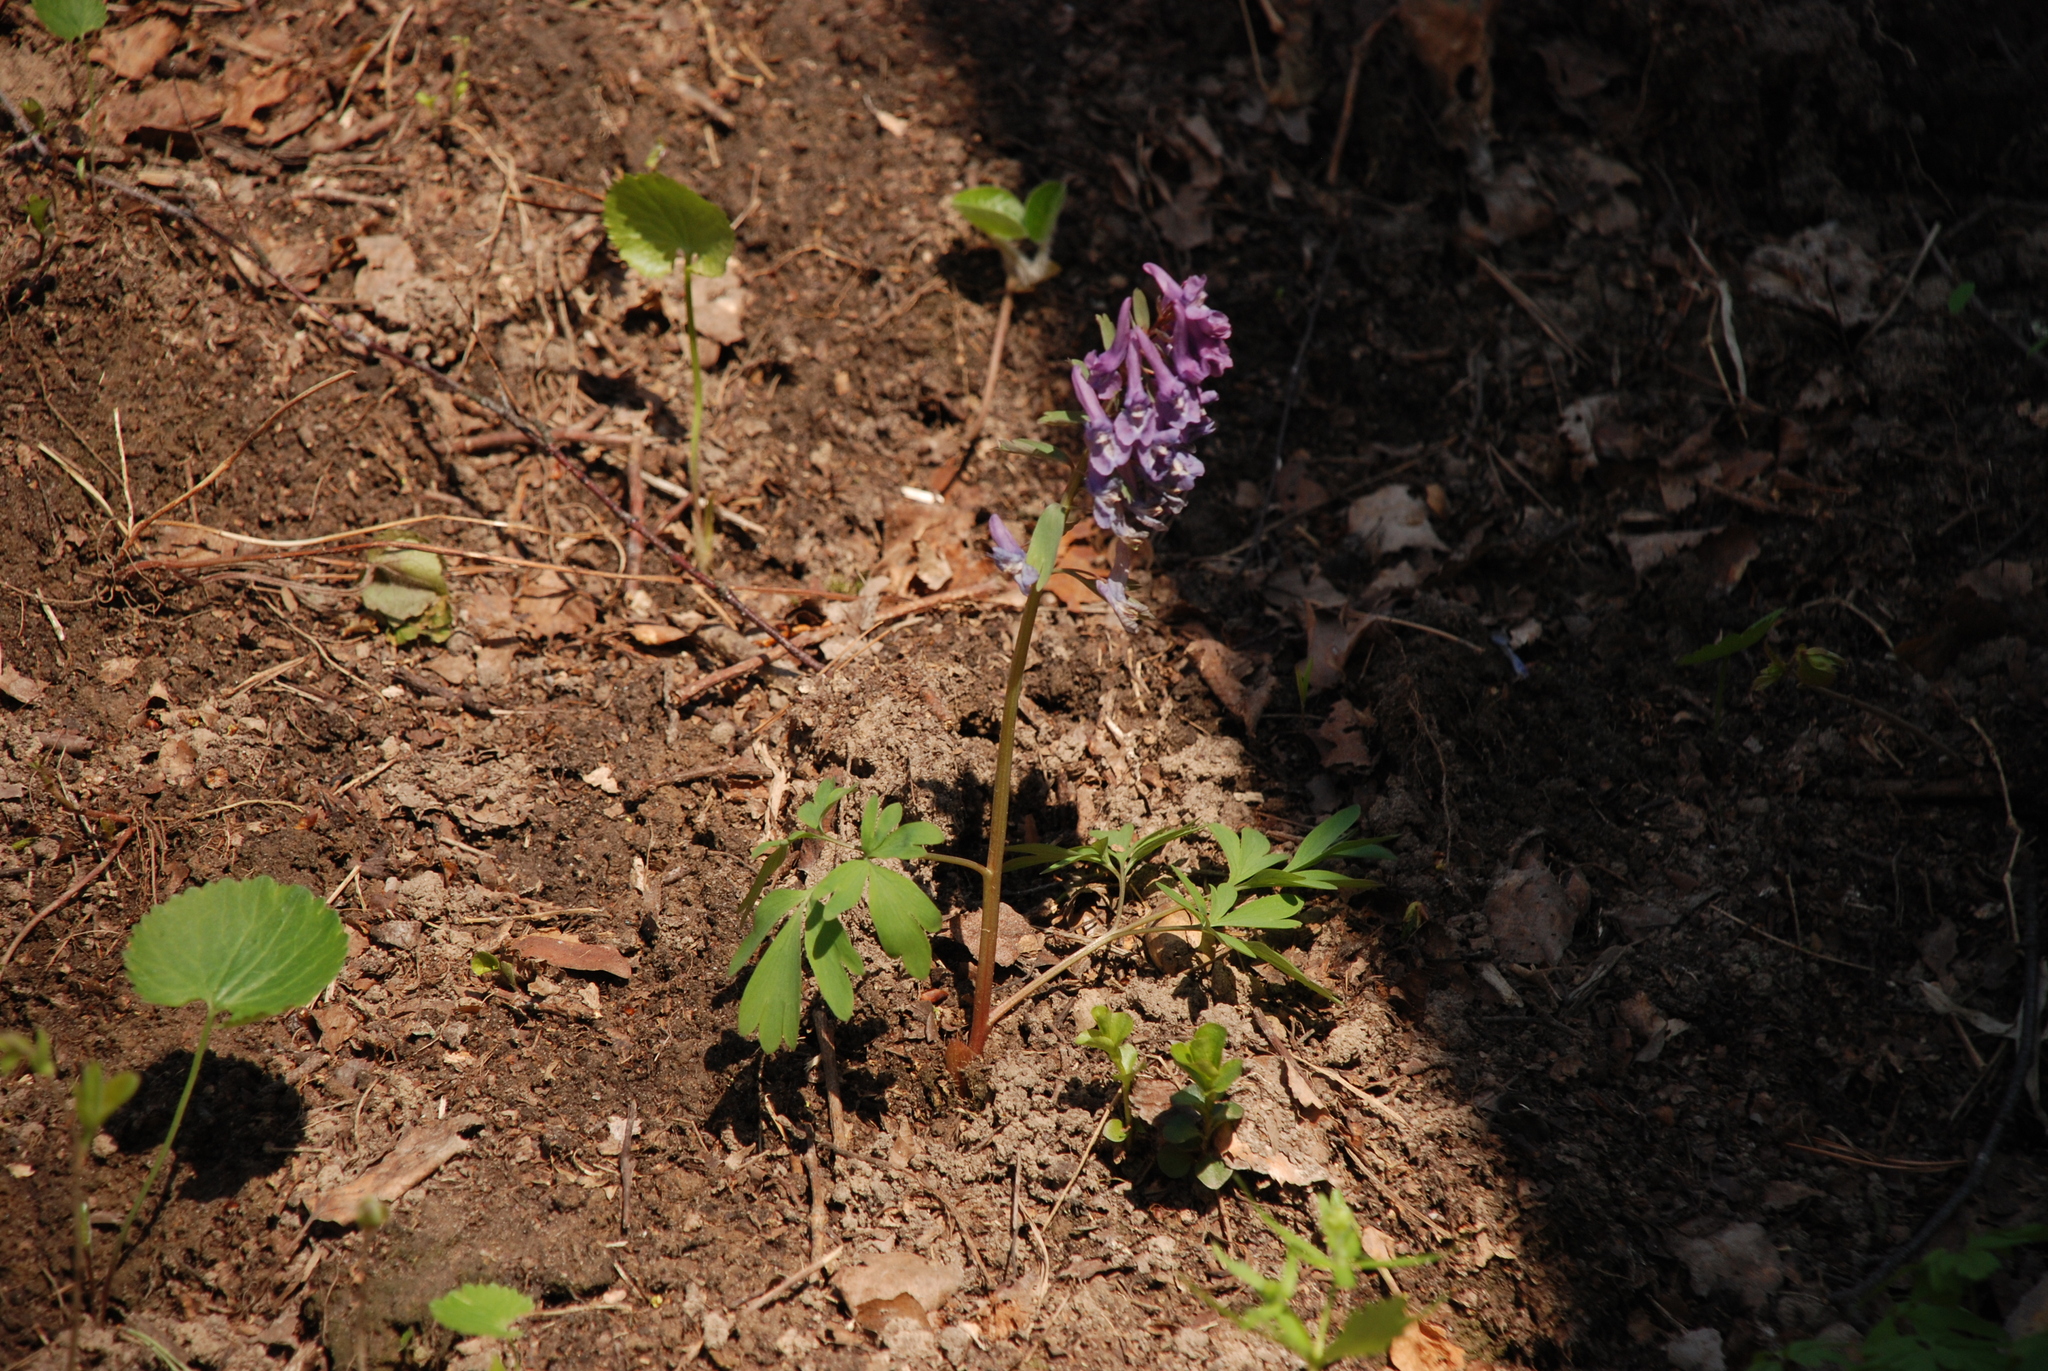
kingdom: Plantae
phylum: Tracheophyta
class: Magnoliopsida
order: Ranunculales
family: Papaveraceae
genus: Corydalis
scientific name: Corydalis solida
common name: Bird-in-a-bush
